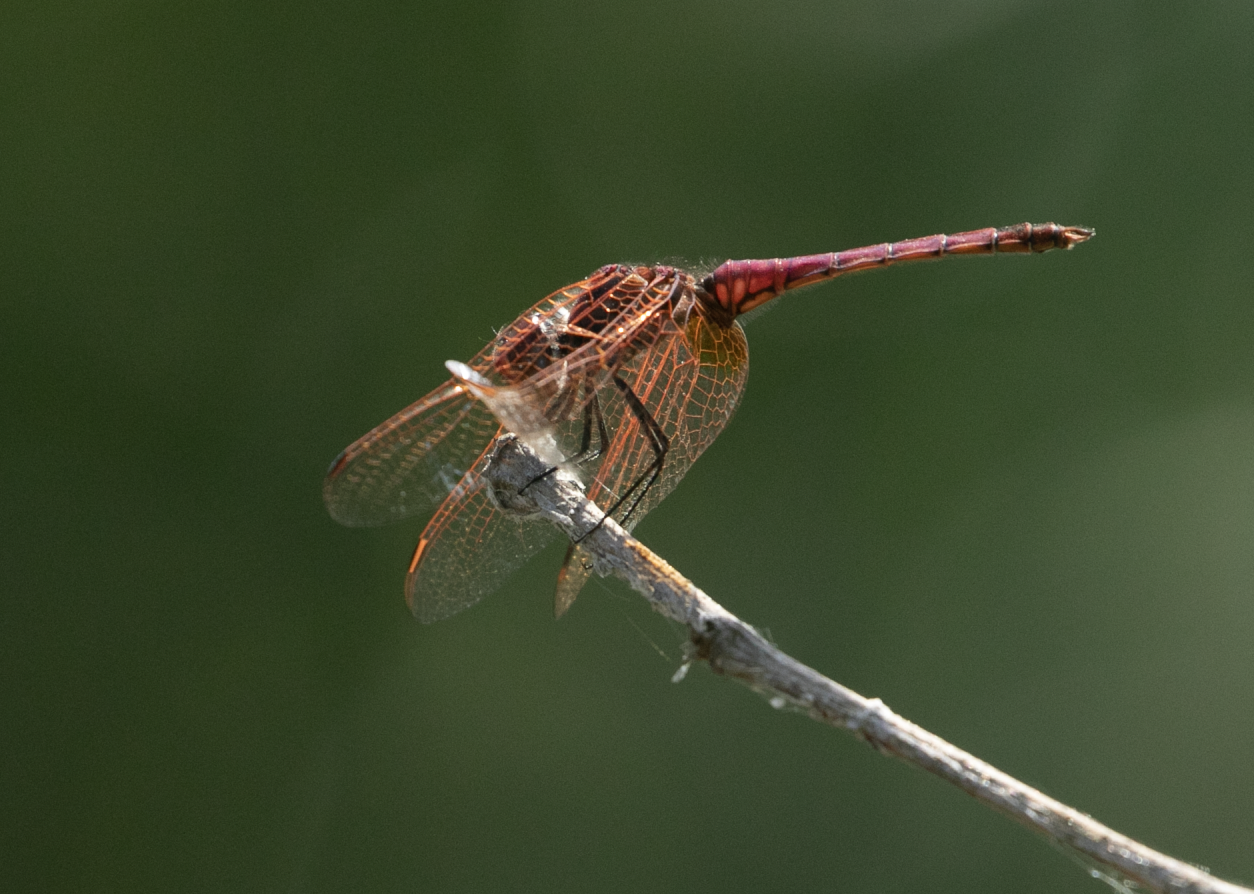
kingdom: Animalia
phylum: Arthropoda
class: Insecta
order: Odonata
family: Libellulidae
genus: Trithemis
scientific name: Trithemis annulata
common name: Violet dropwing
